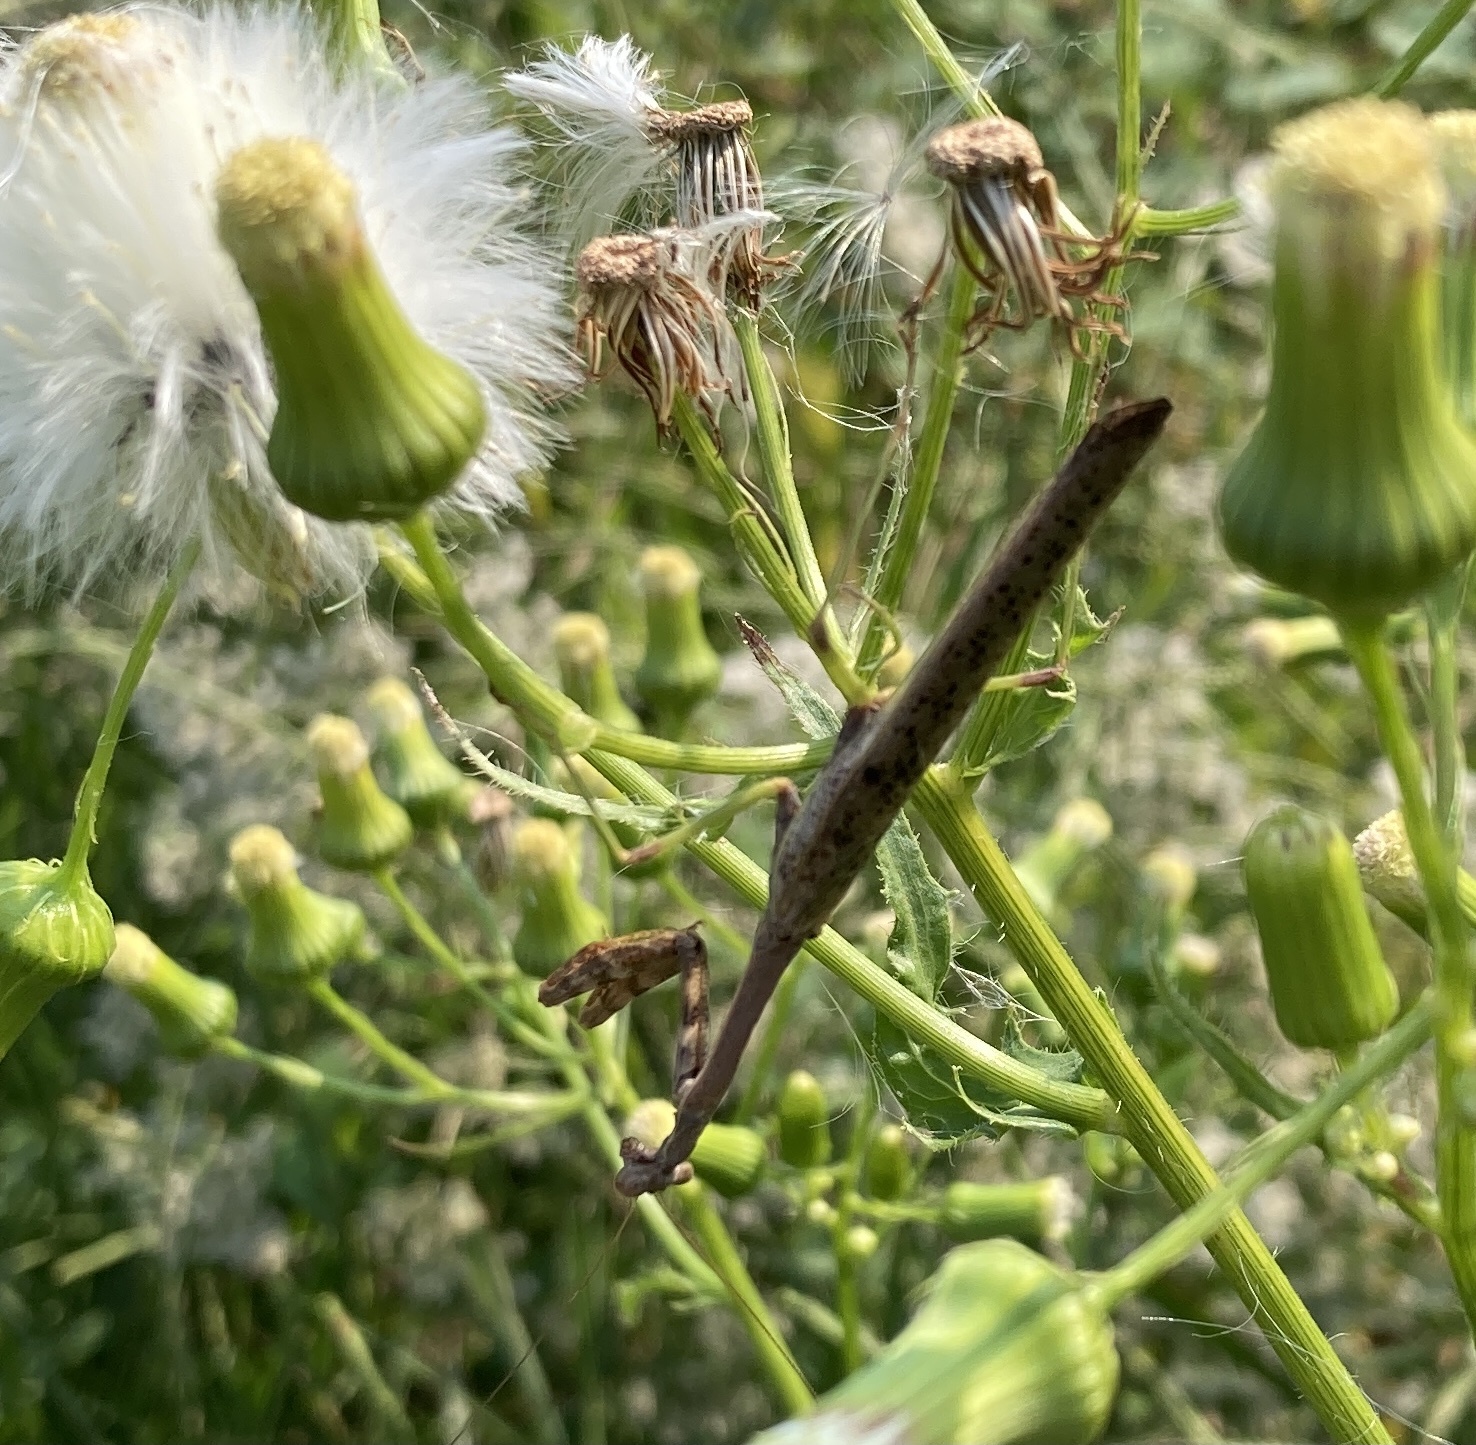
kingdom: Animalia
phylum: Arthropoda
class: Insecta
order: Mantodea
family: Mantidae
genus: Stagmomantis
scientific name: Stagmomantis carolina
